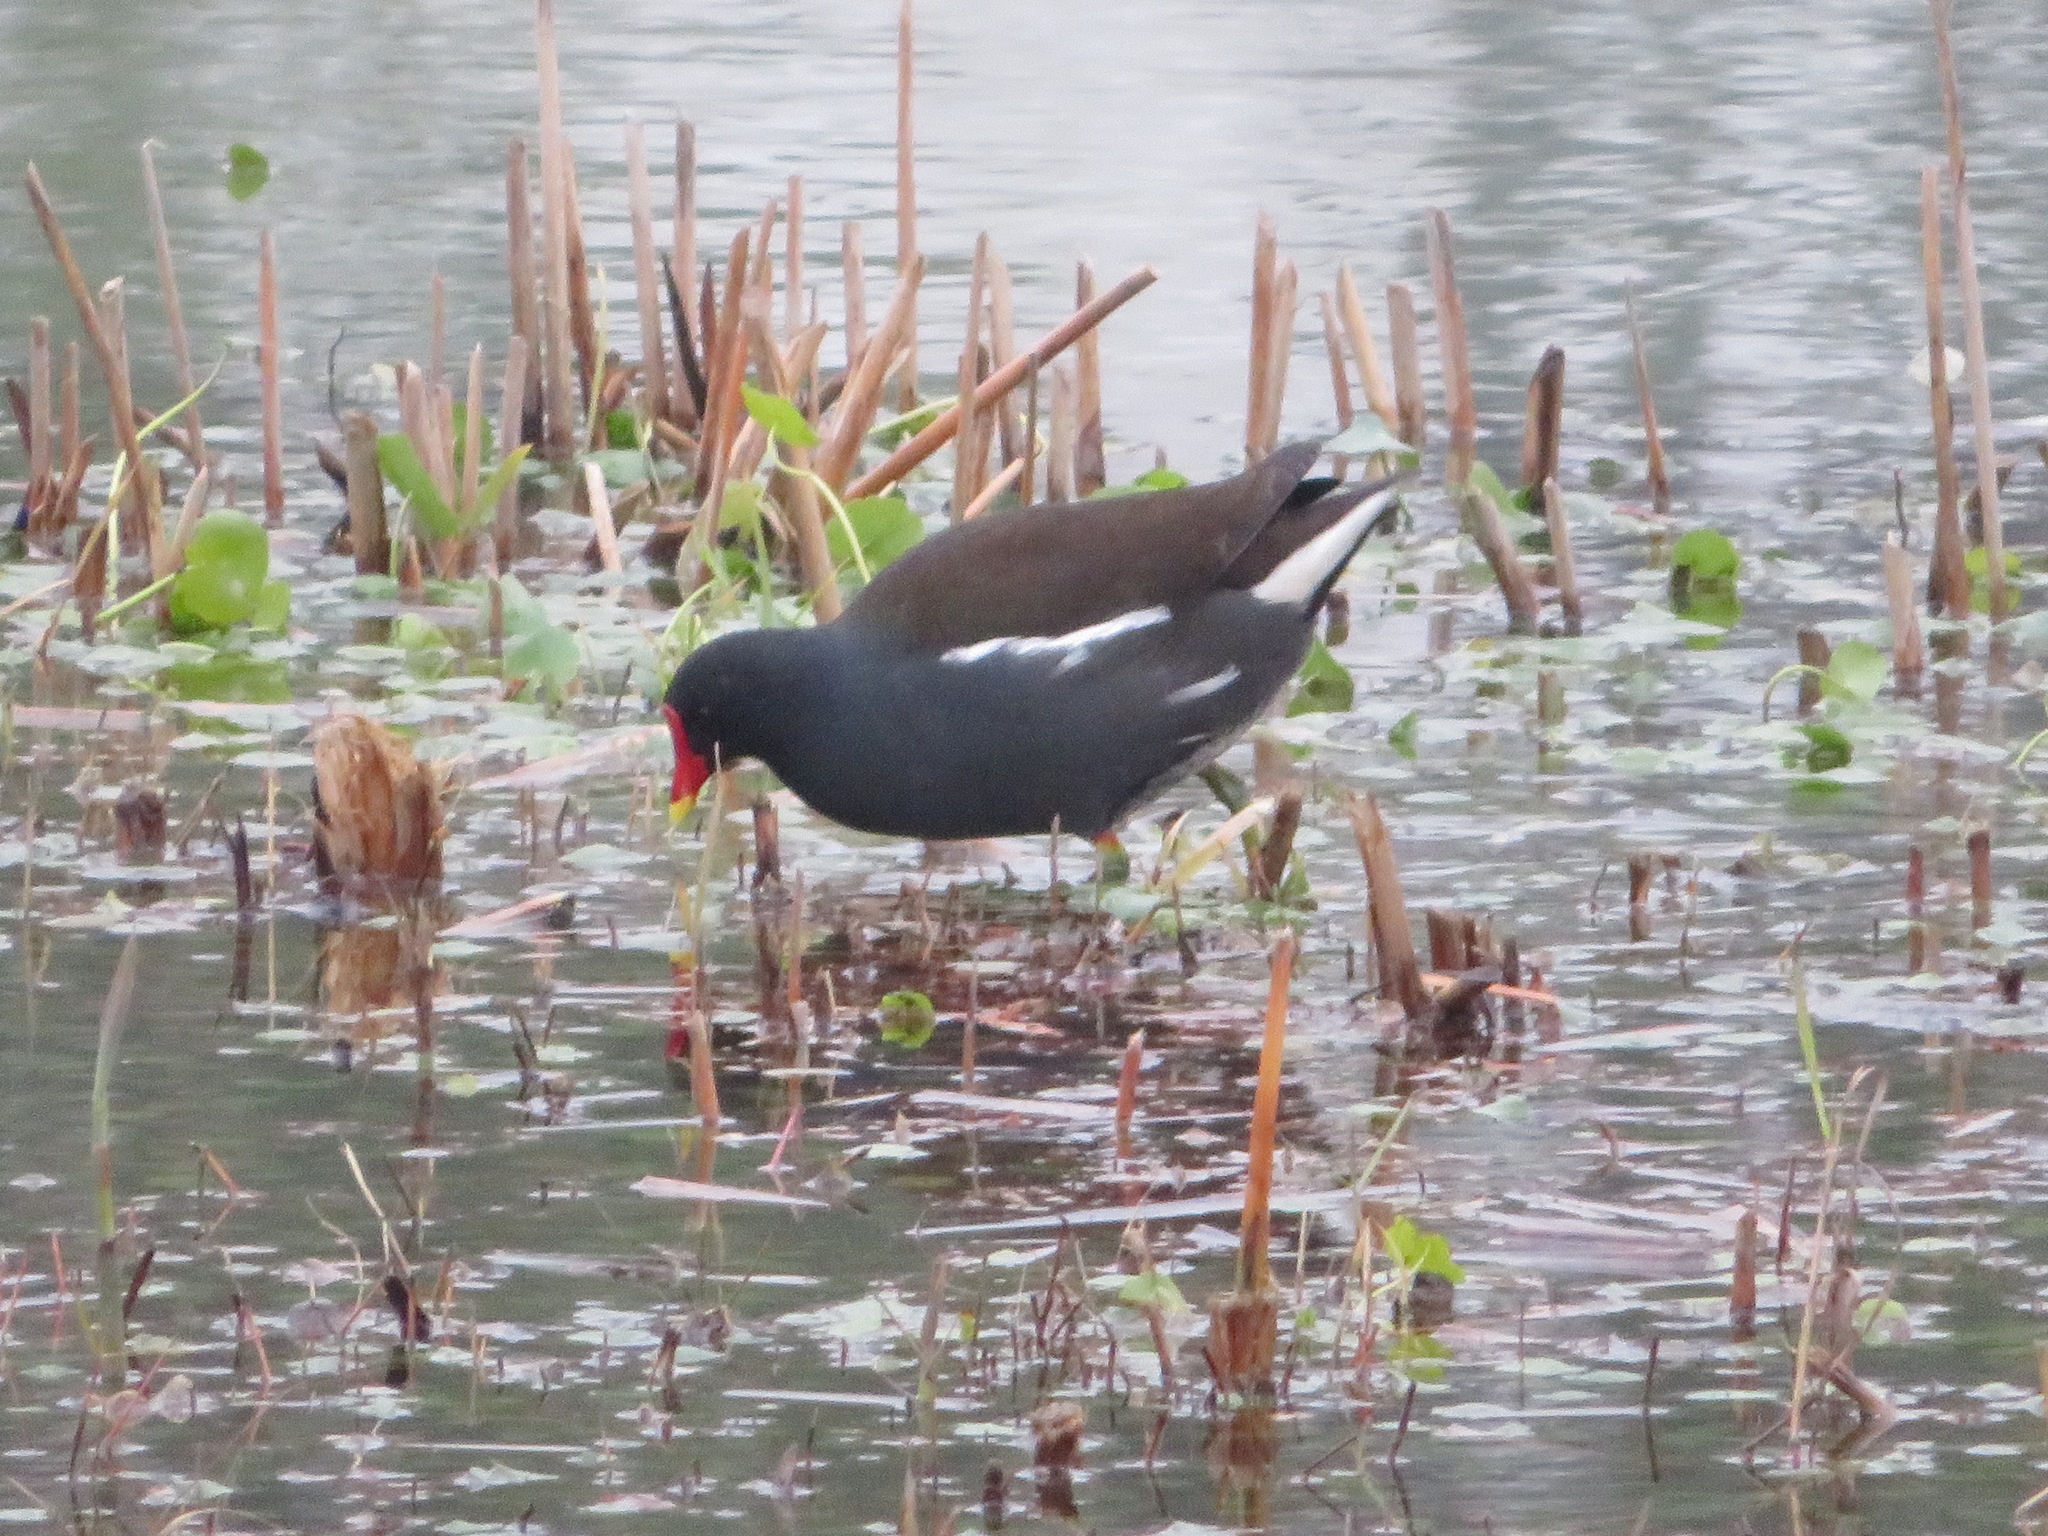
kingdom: Animalia
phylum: Chordata
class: Aves
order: Gruiformes
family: Rallidae
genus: Gallinula
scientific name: Gallinula chloropus
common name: Common moorhen
